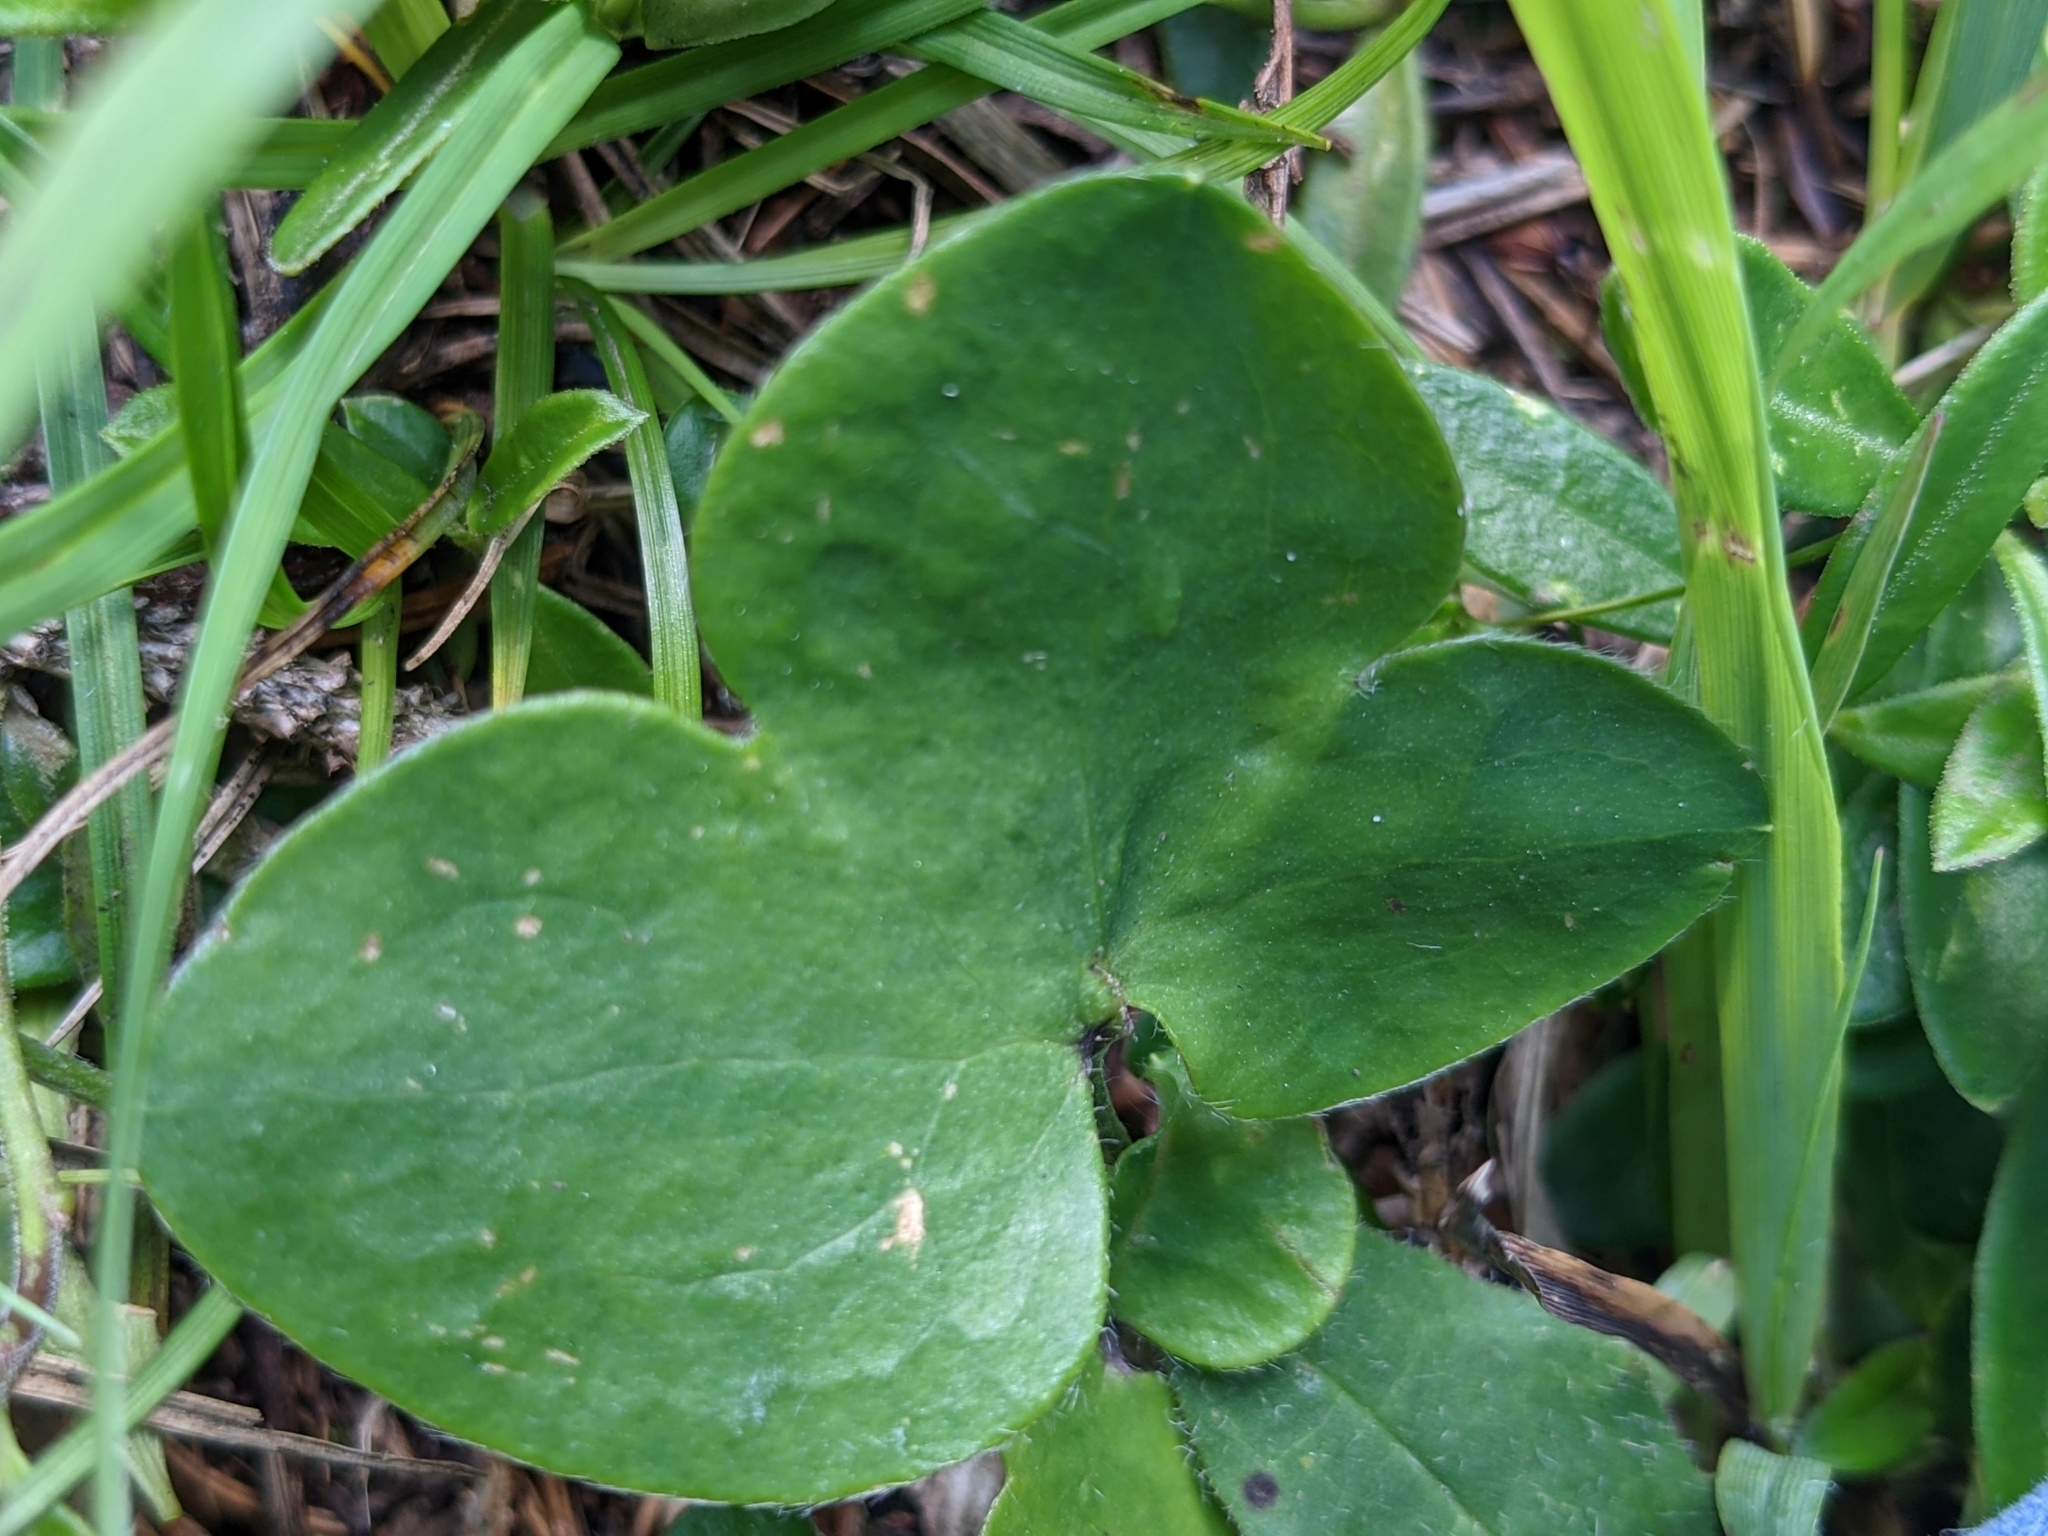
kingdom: Plantae
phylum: Tracheophyta
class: Magnoliopsida
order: Ranunculales
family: Ranunculaceae
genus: Hepatica
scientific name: Hepatica nobilis
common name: Liverleaf
